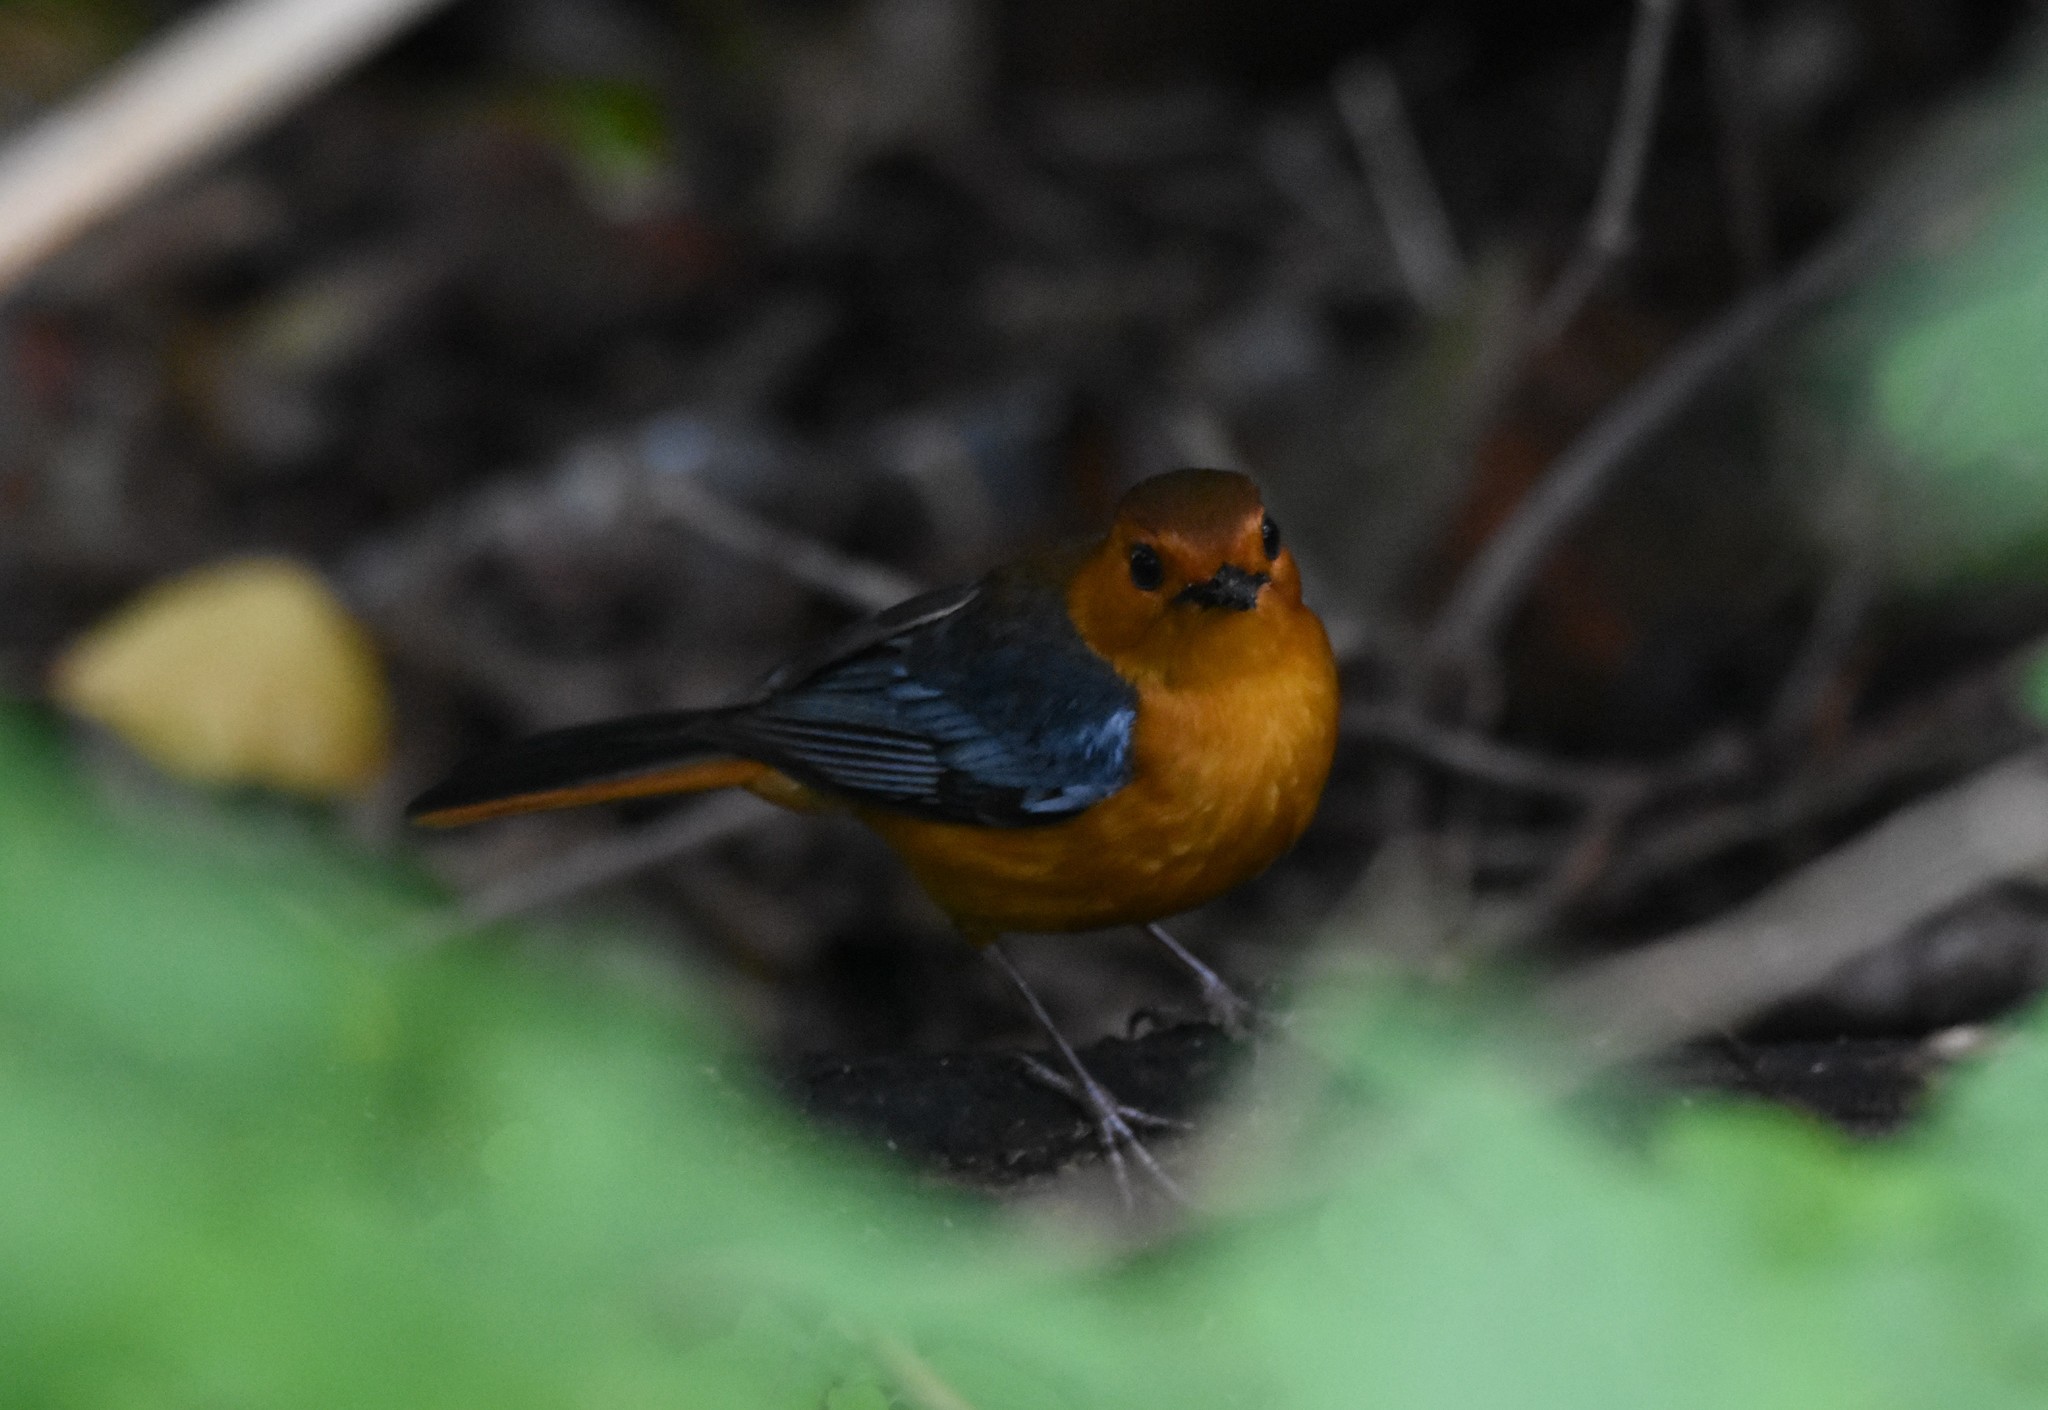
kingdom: Animalia
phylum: Chordata
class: Aves
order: Passeriformes
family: Muscicapidae
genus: Cossypha
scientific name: Cossypha natalensis
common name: Red-capped robin-chat
